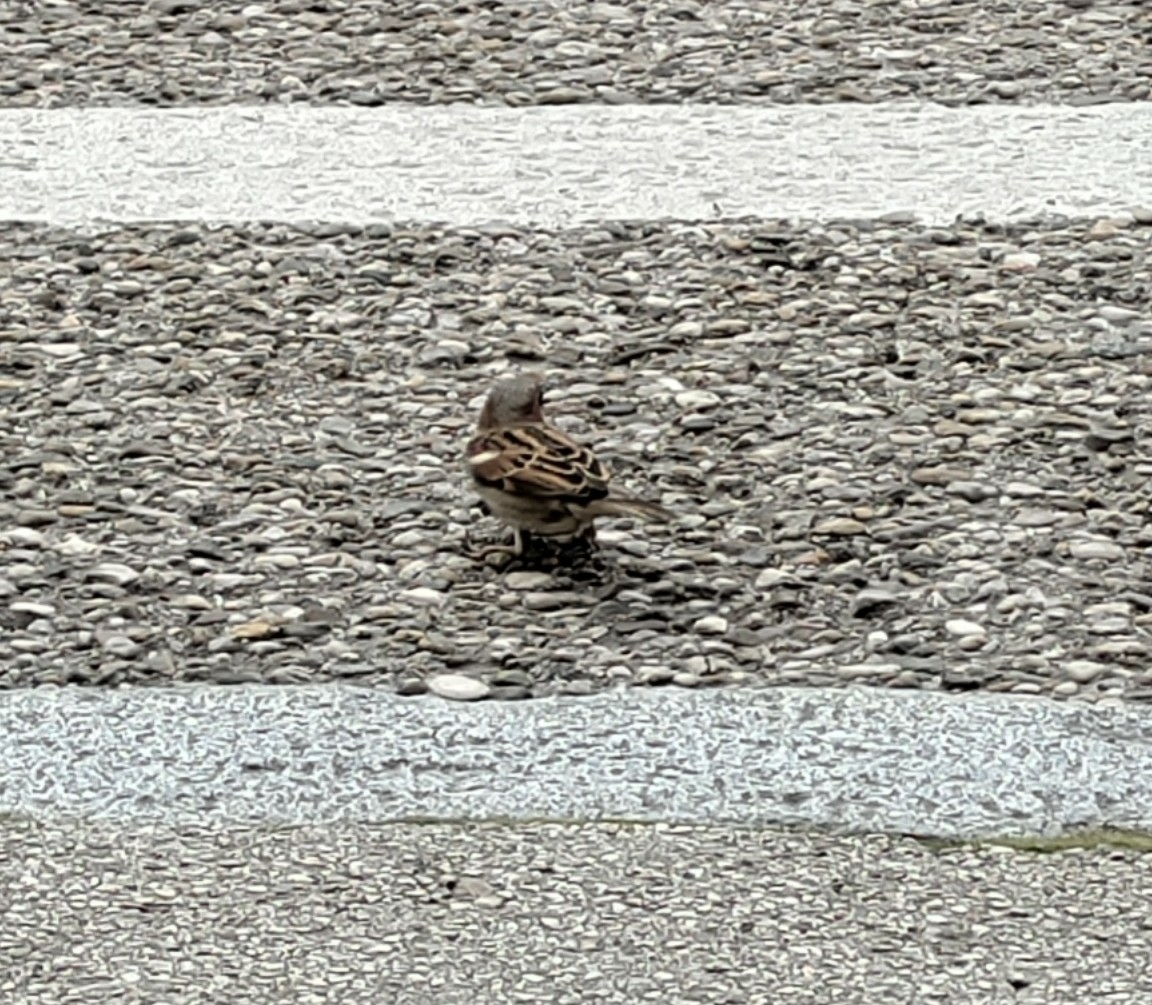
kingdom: Animalia
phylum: Chordata
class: Aves
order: Passeriformes
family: Passeridae
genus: Passer
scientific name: Passer domesticus
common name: House sparrow
